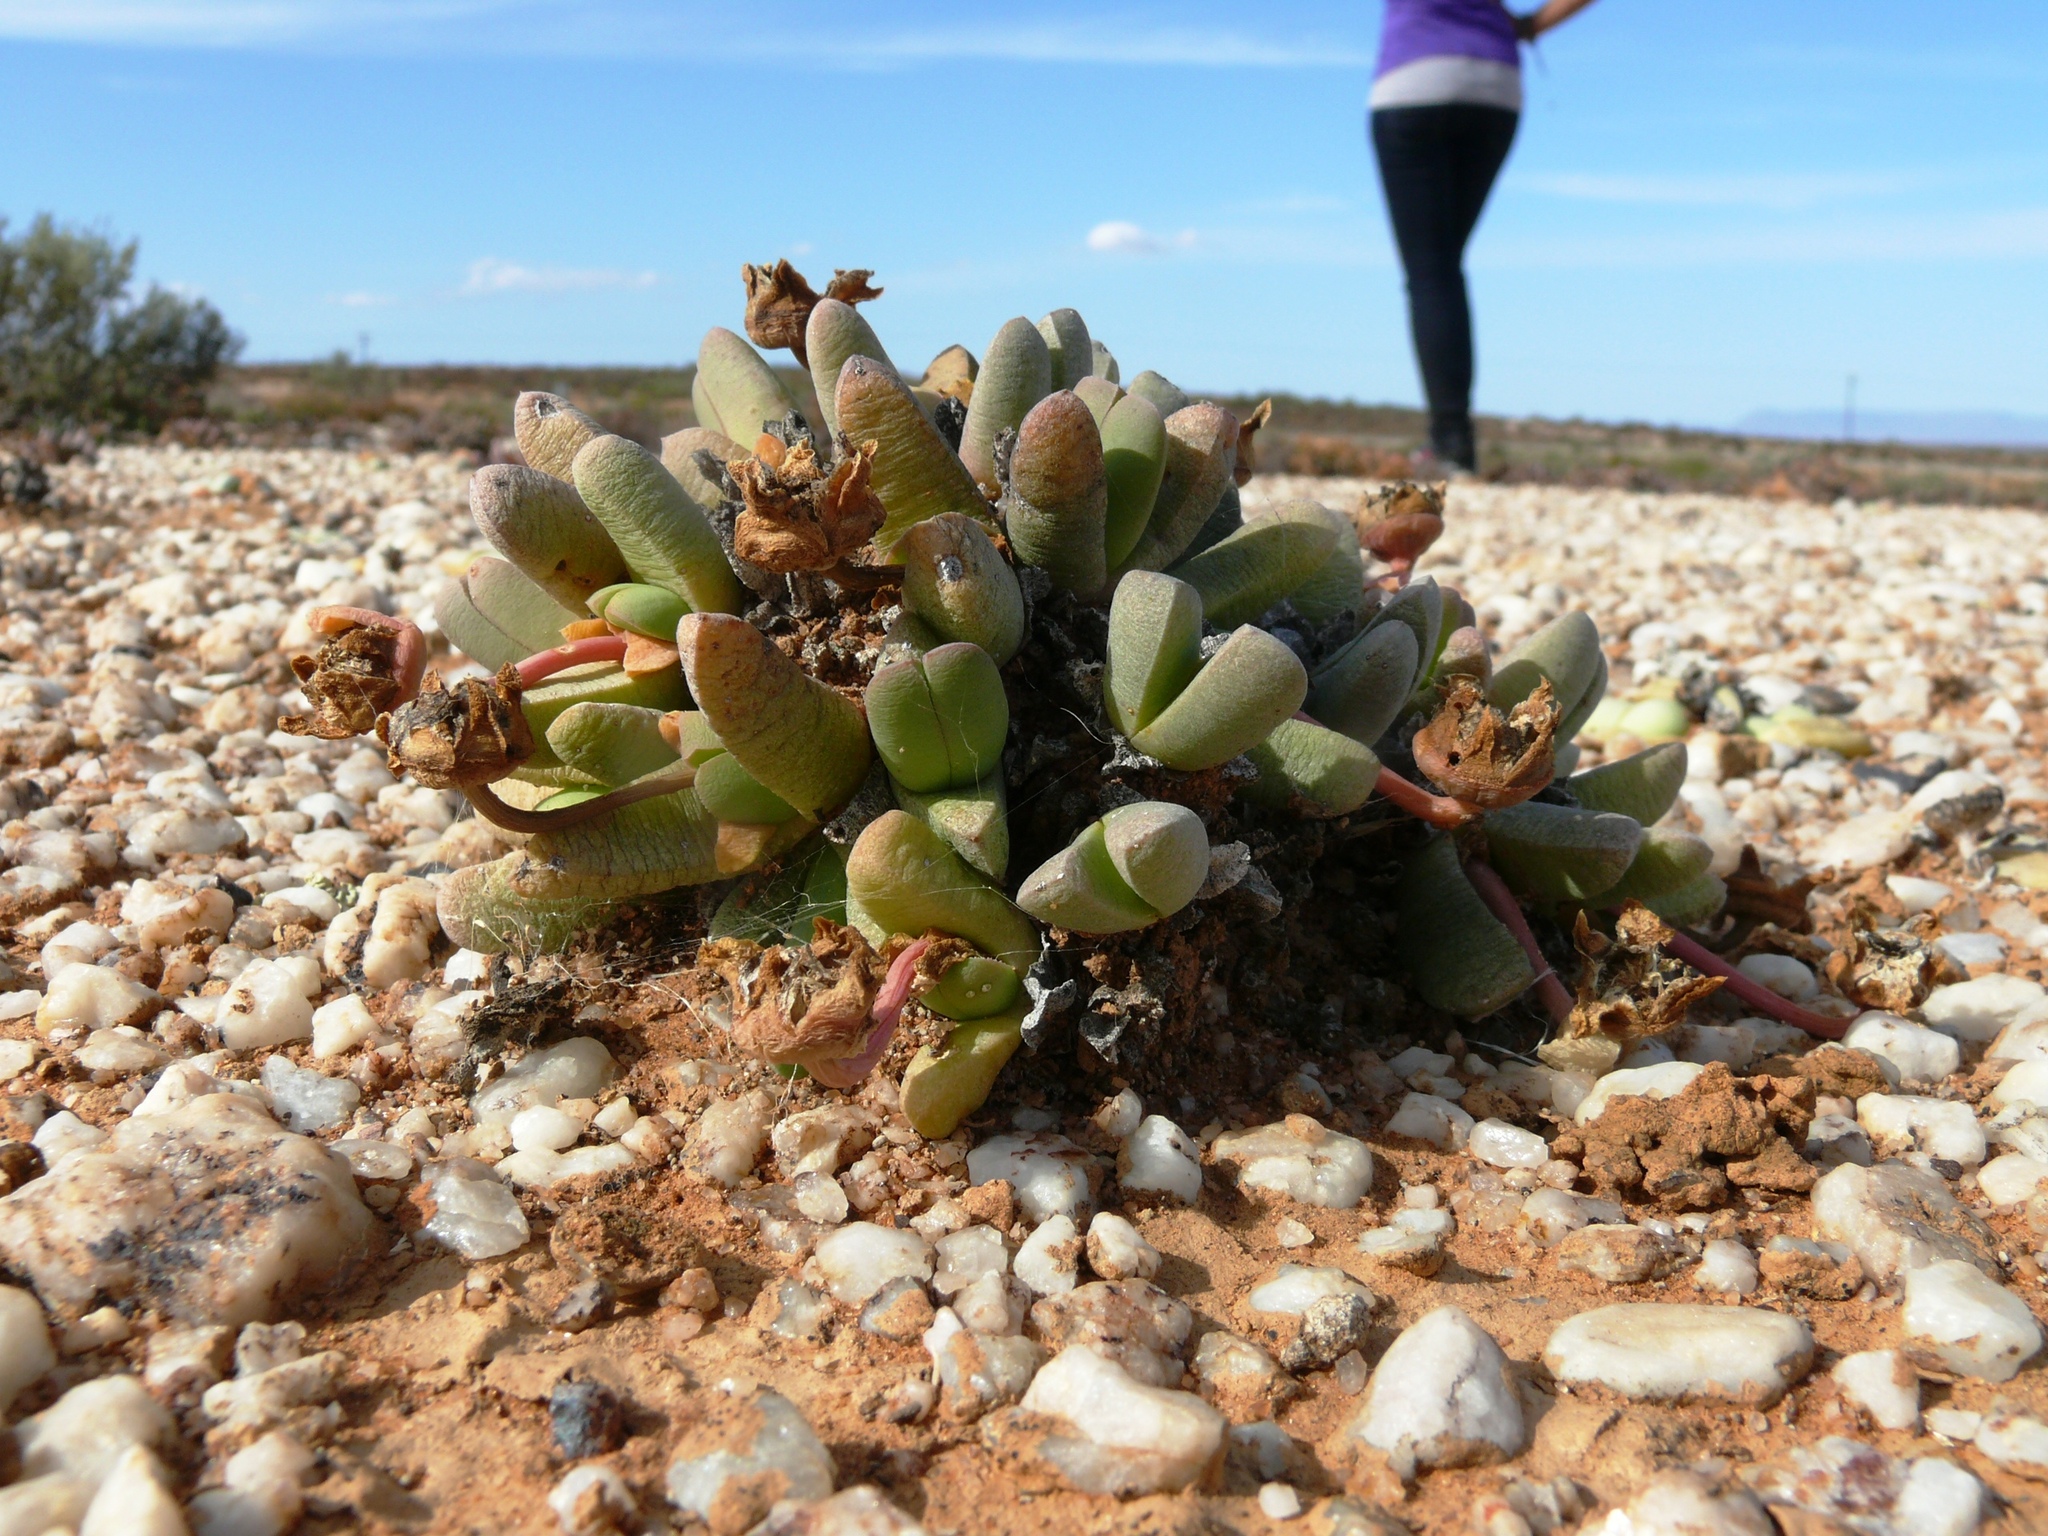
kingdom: Plantae
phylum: Tracheophyta
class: Magnoliopsida
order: Caryophyllales
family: Aizoaceae
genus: Cephalophyllum
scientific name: Cephalophyllum spissum
